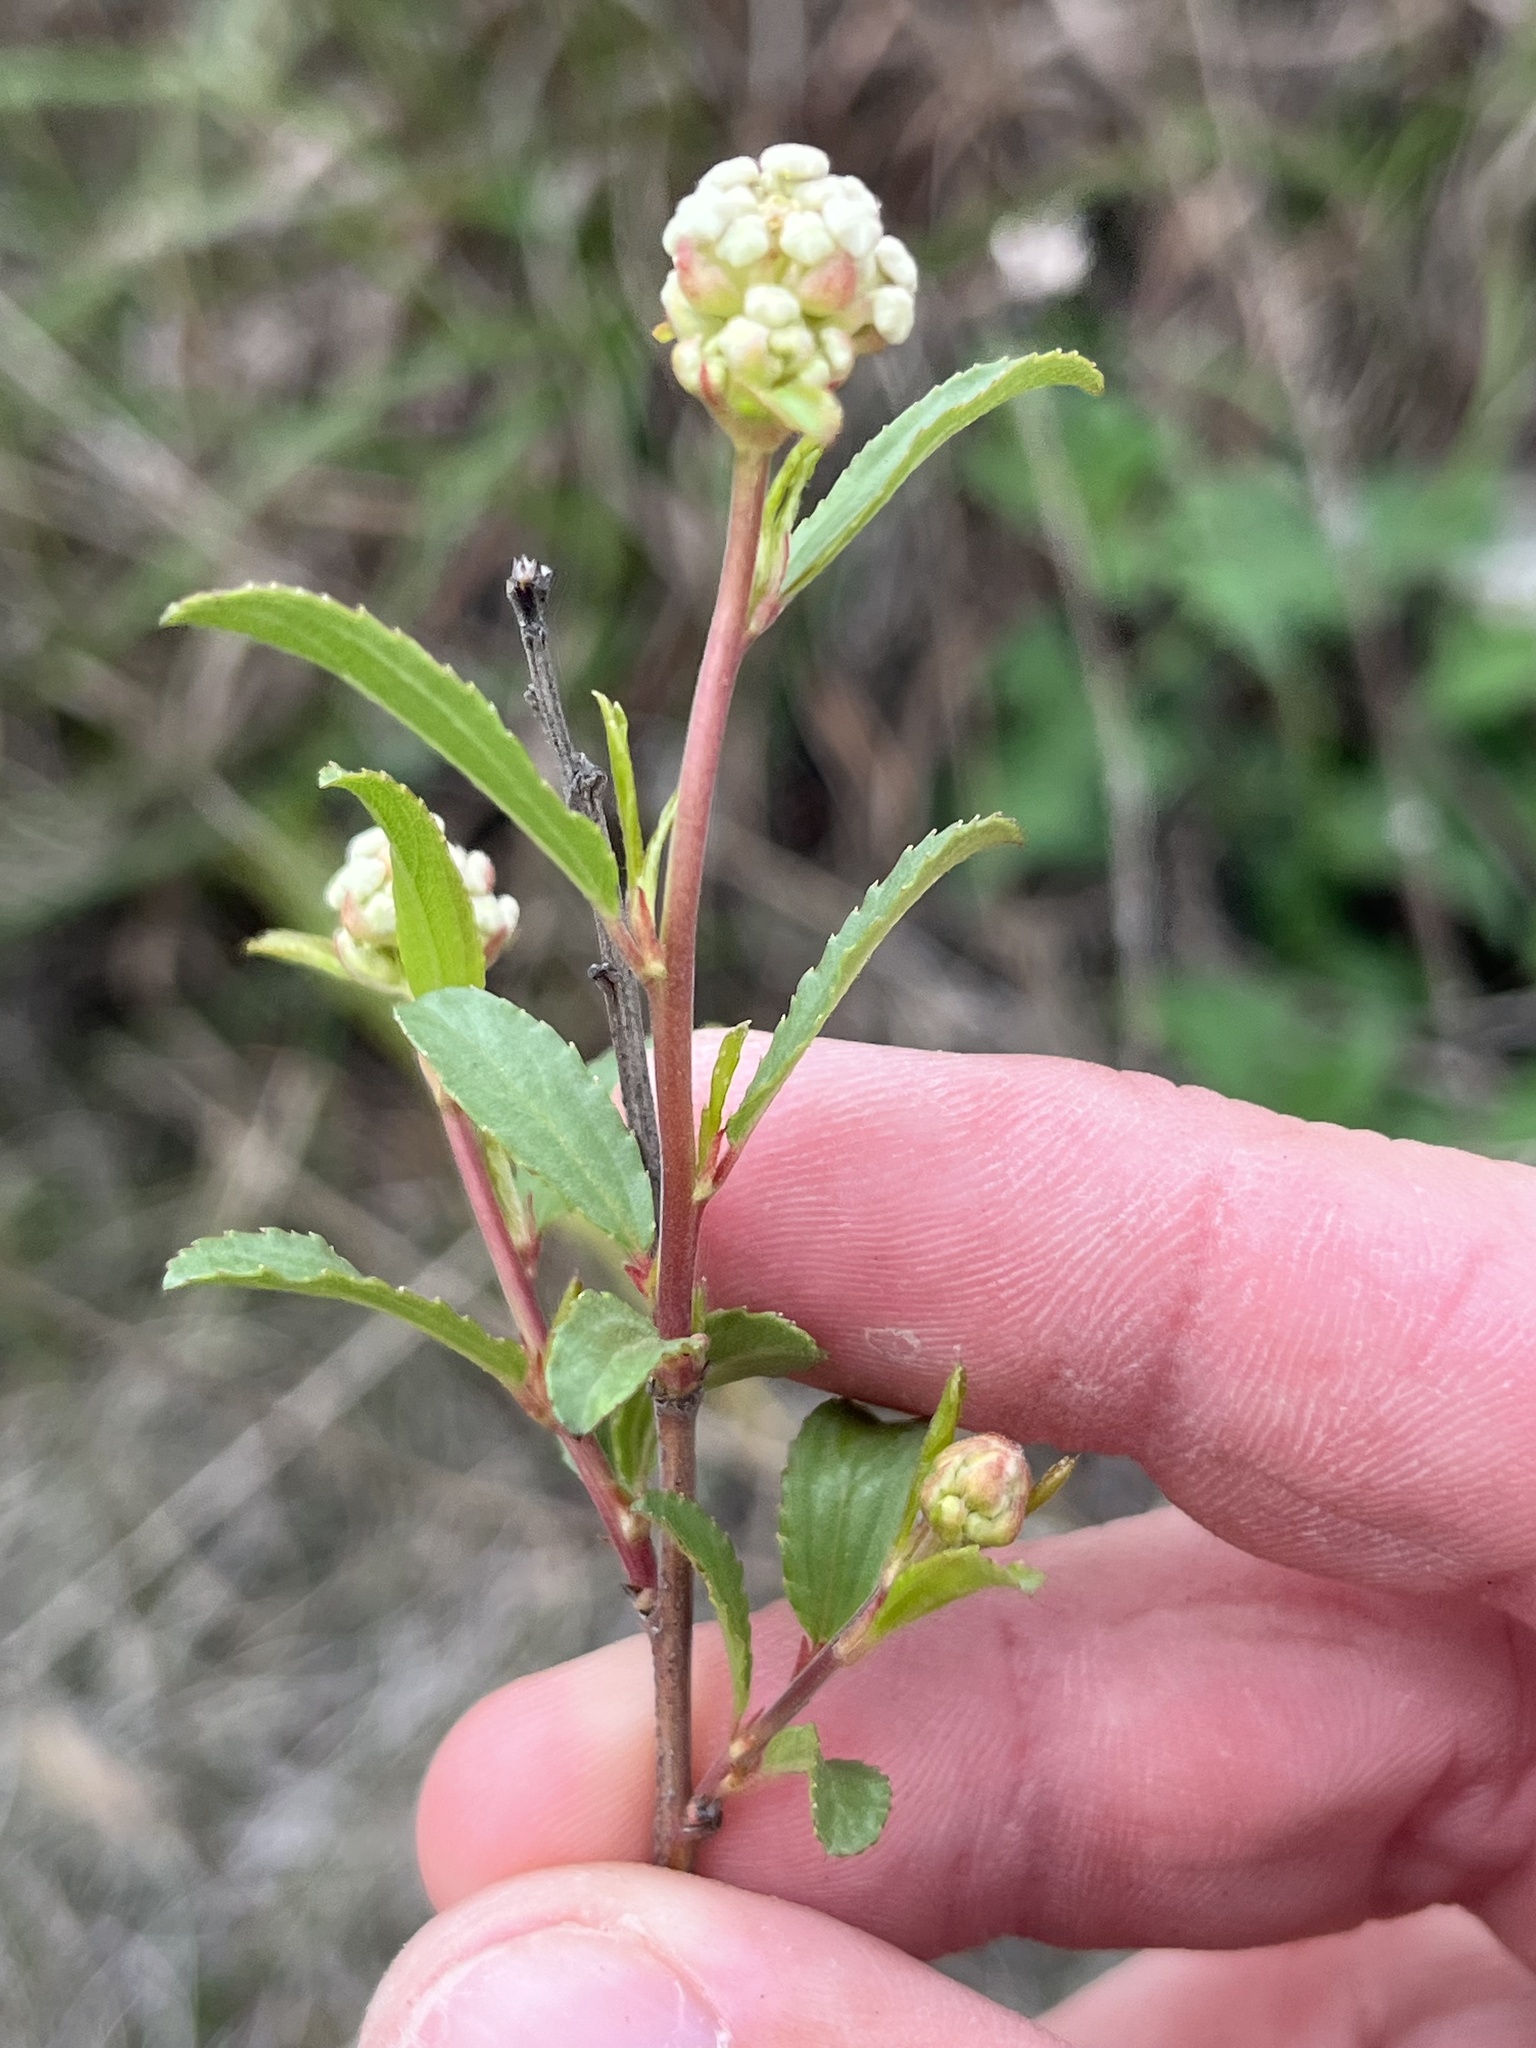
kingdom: Plantae
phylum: Tracheophyta
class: Magnoliopsida
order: Rosales
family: Rhamnaceae
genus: Ceanothus
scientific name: Ceanothus herbaceus
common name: Inland ceanothus
